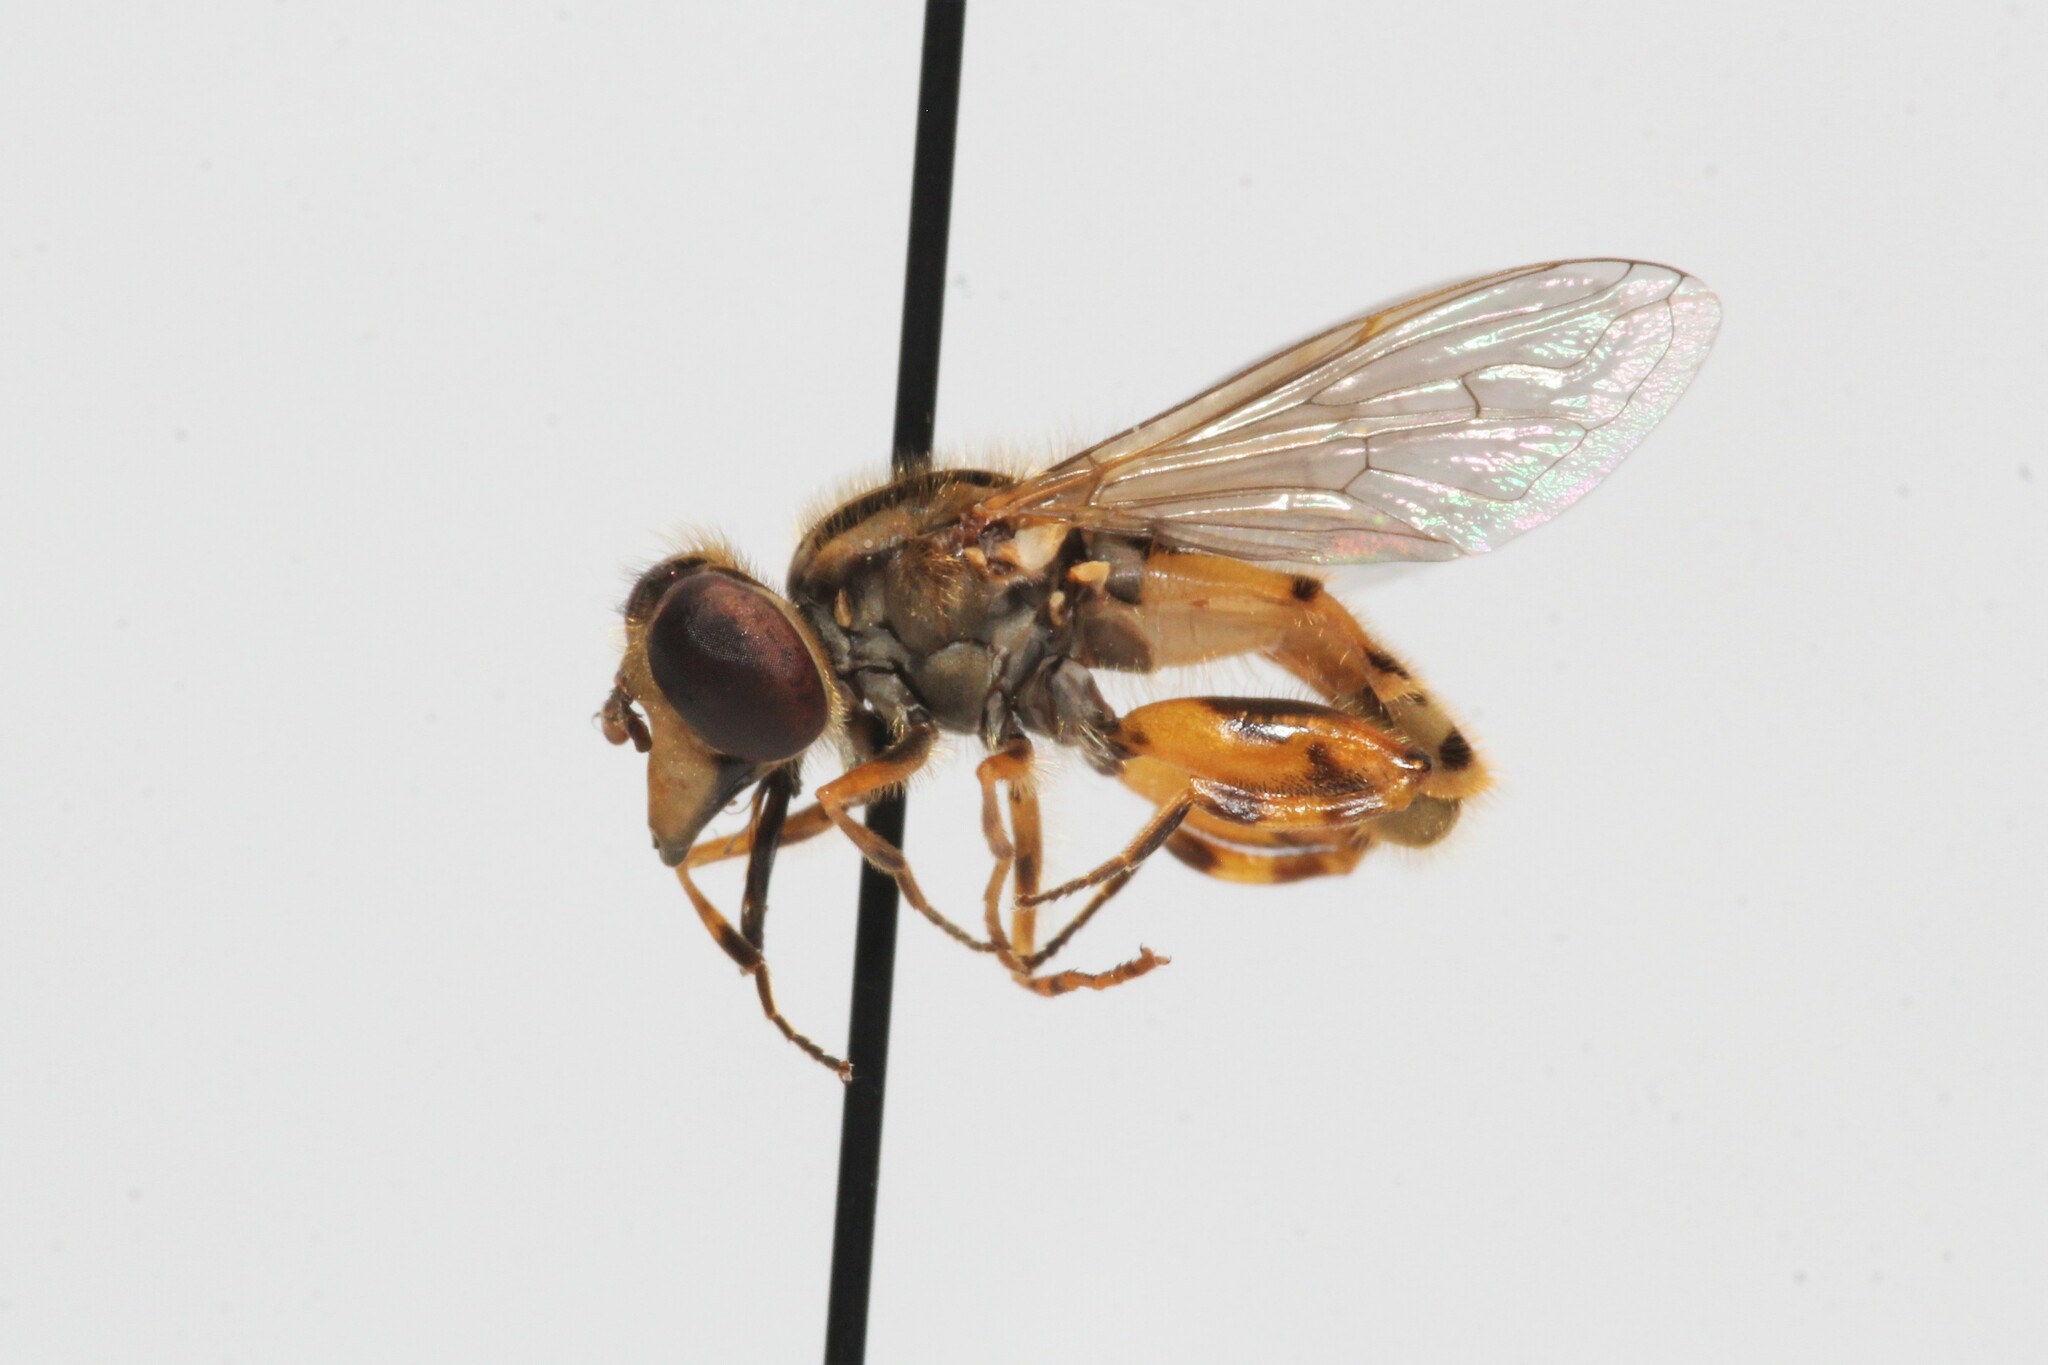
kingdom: Animalia
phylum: Arthropoda
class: Insecta
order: Diptera
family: Syrphidae
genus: Eurimyia
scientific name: Eurimyia stipatus
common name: Long-nosed swamp fly
